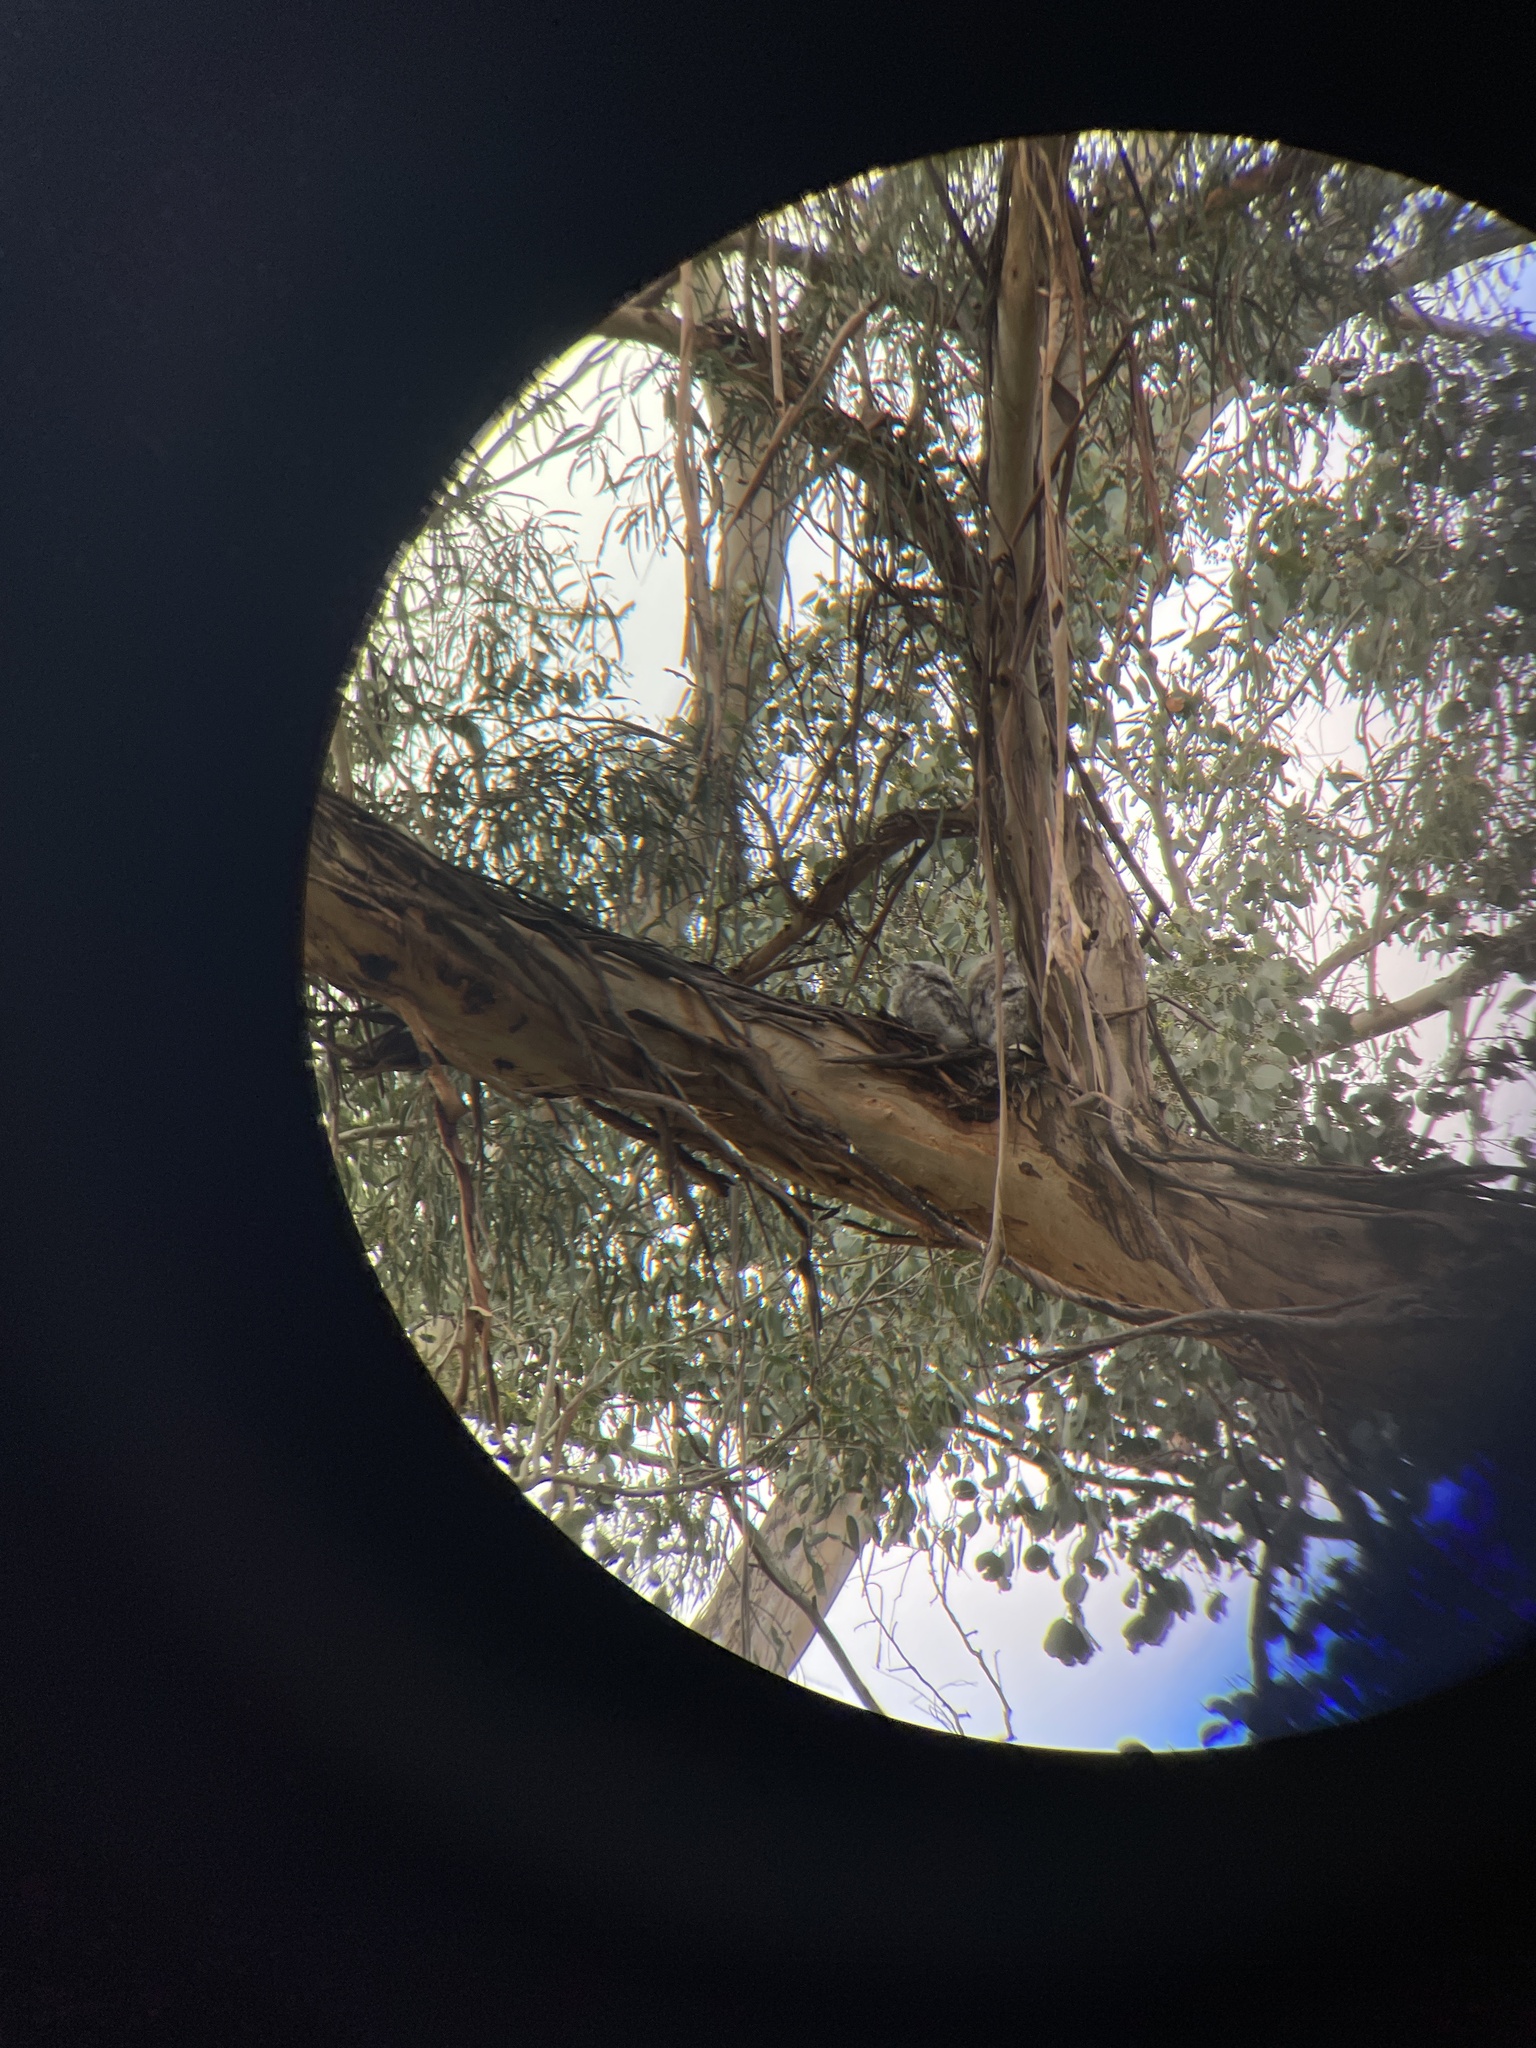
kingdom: Animalia
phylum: Chordata
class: Aves
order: Caprimulgiformes
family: Podargidae
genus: Podargus
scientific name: Podargus strigoides
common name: Tawny frogmouth
